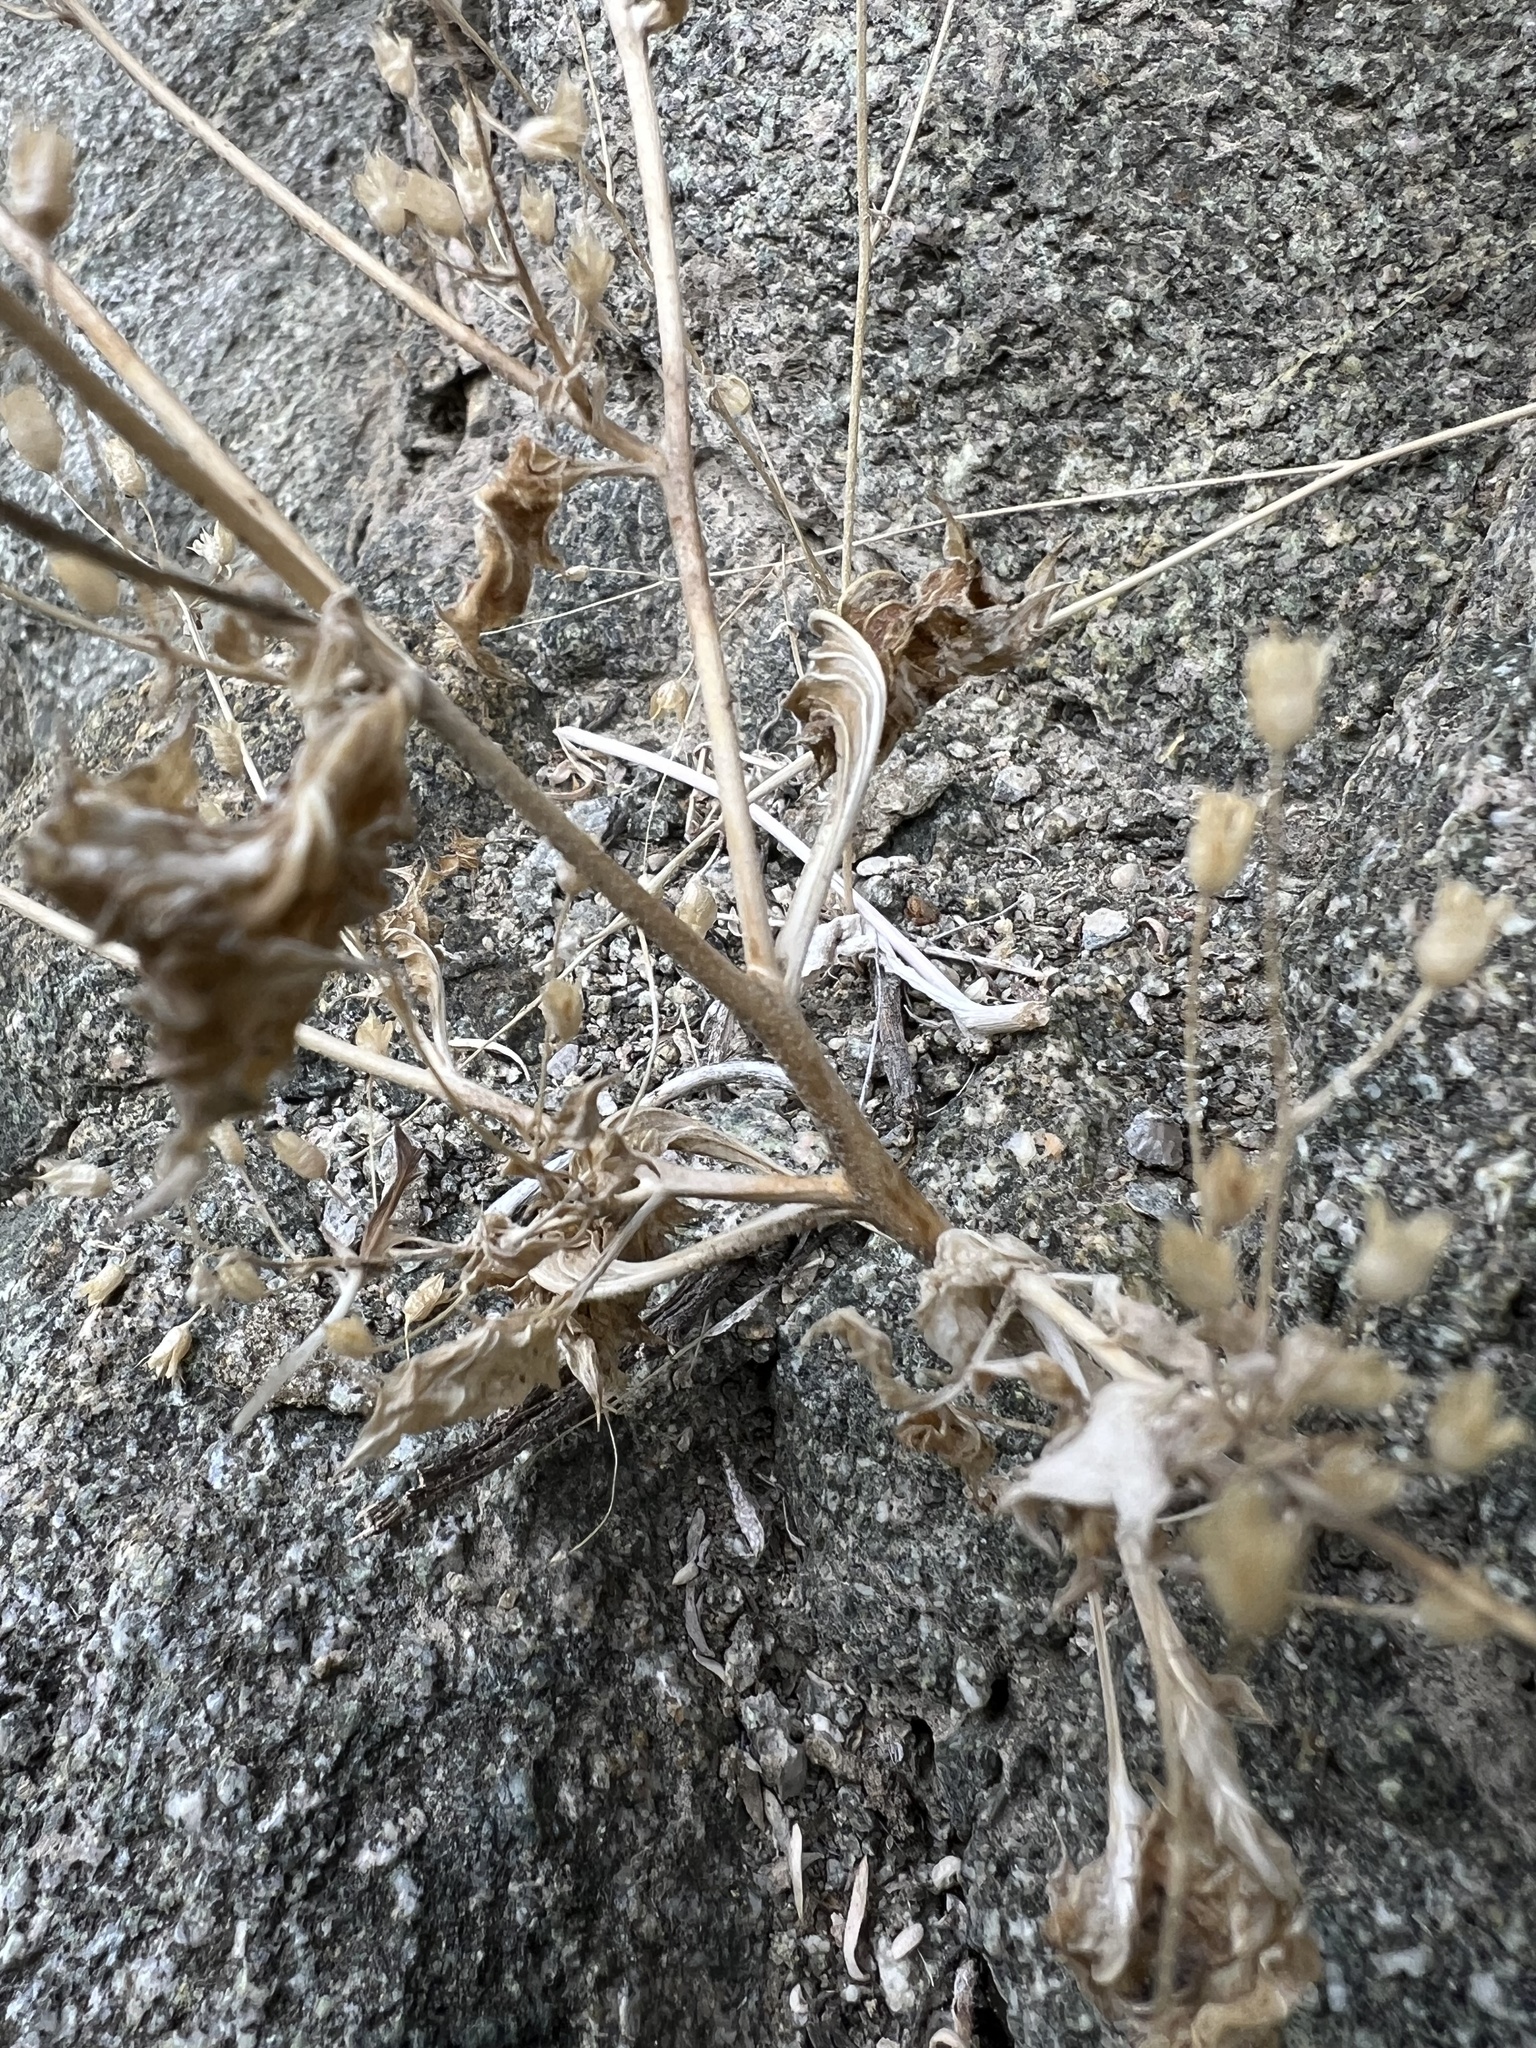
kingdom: Plantae
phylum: Tracheophyta
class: Magnoliopsida
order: Ericales
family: Polemoniaceae
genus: Aliciella
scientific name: Aliciella latifolia
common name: Broad-leaf gilia
